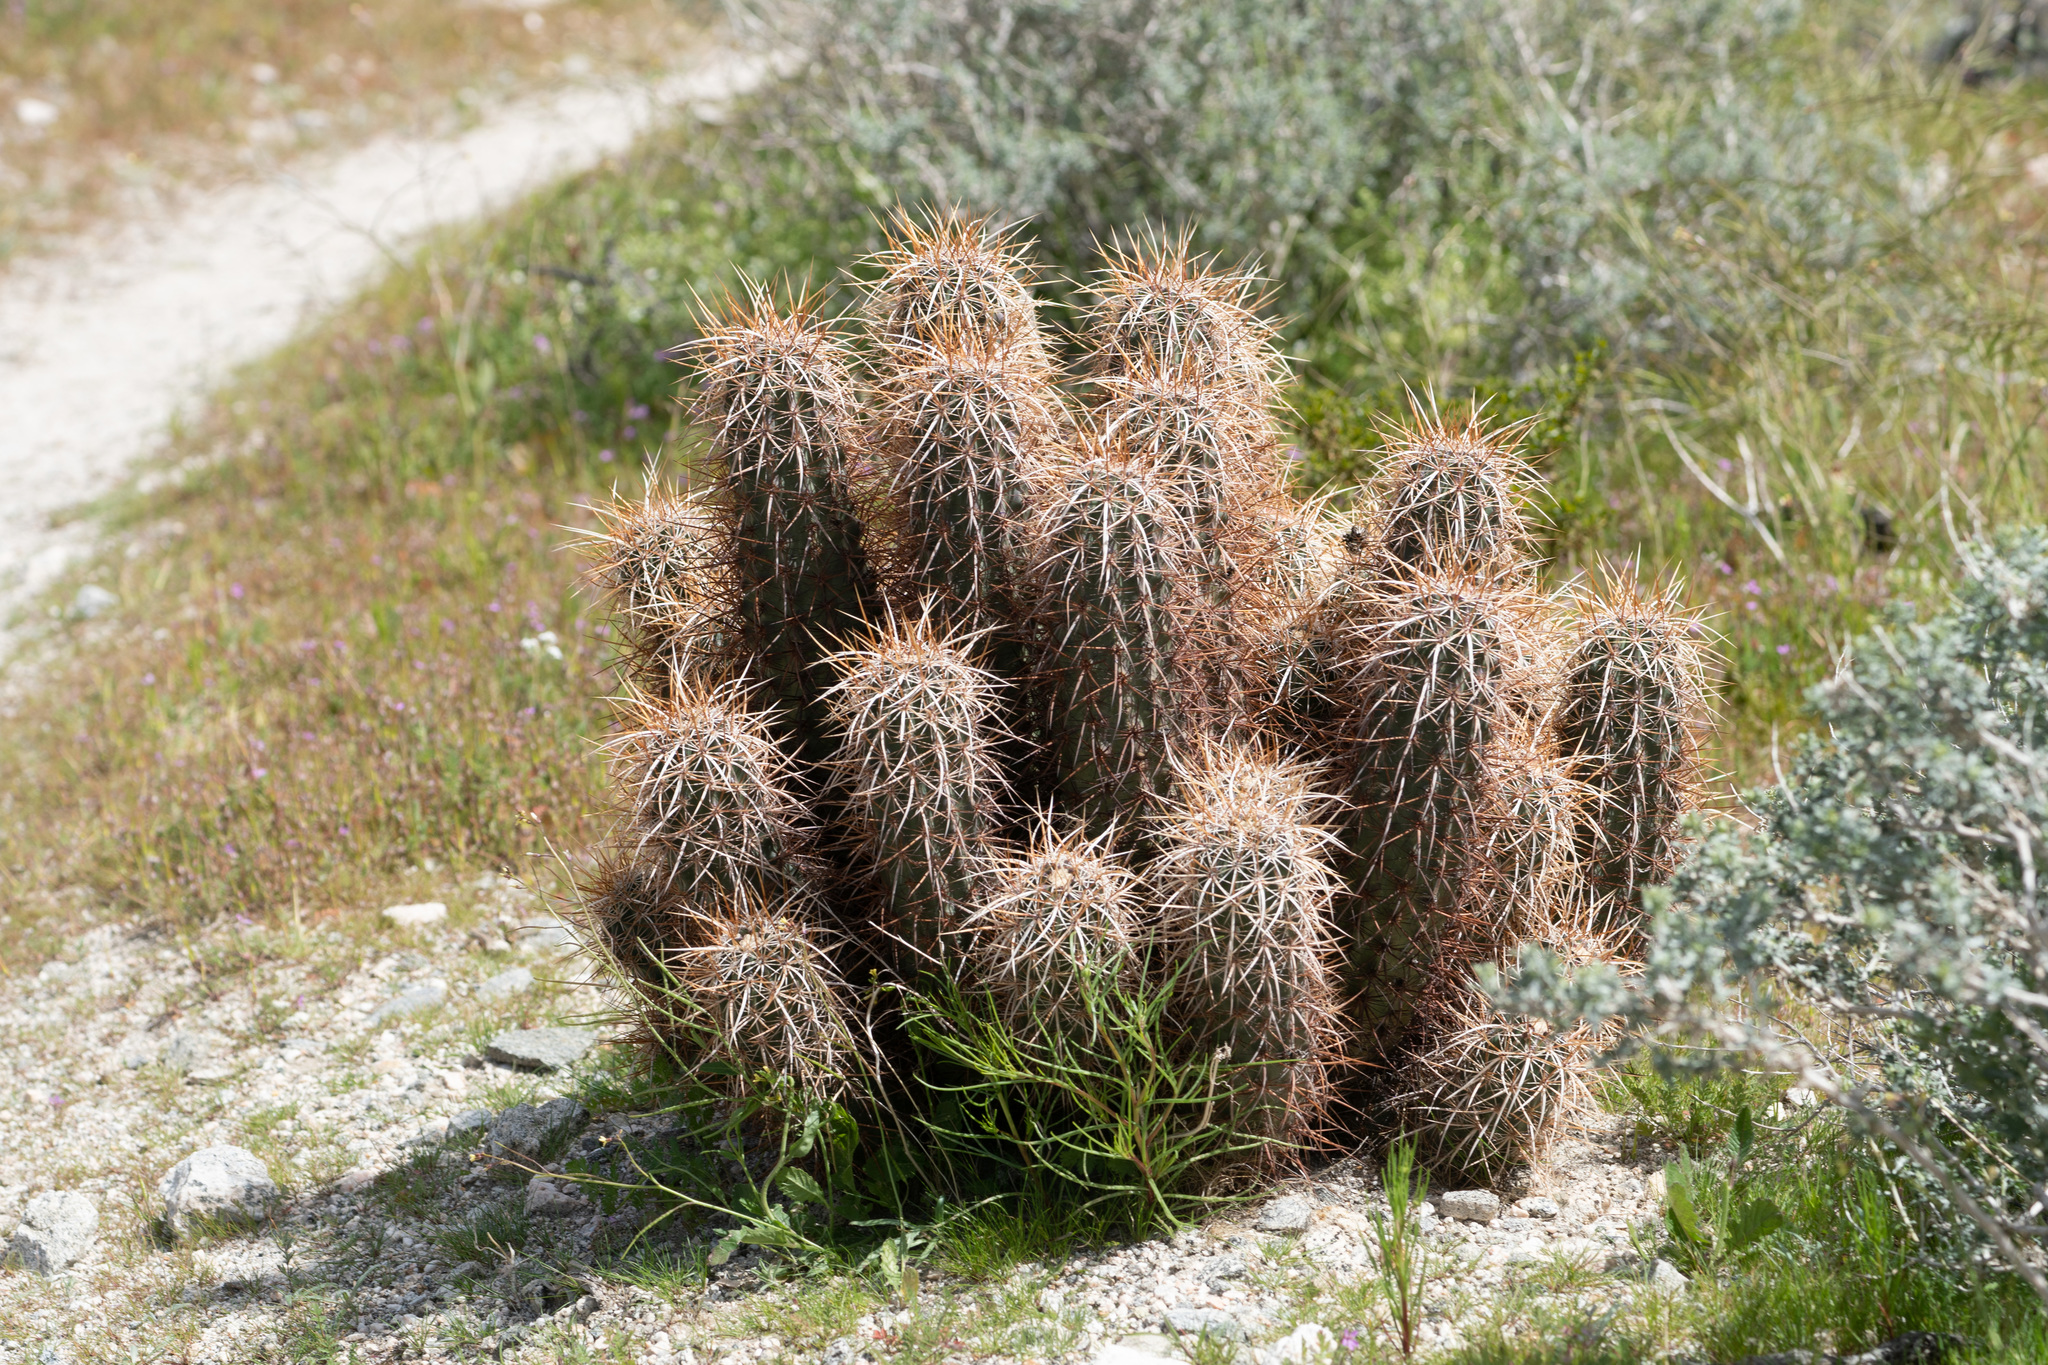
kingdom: Plantae
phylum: Tracheophyta
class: Magnoliopsida
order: Caryophyllales
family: Cactaceae
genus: Echinocereus
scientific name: Echinocereus engelmannii
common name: Engelmann's hedgehog cactus
